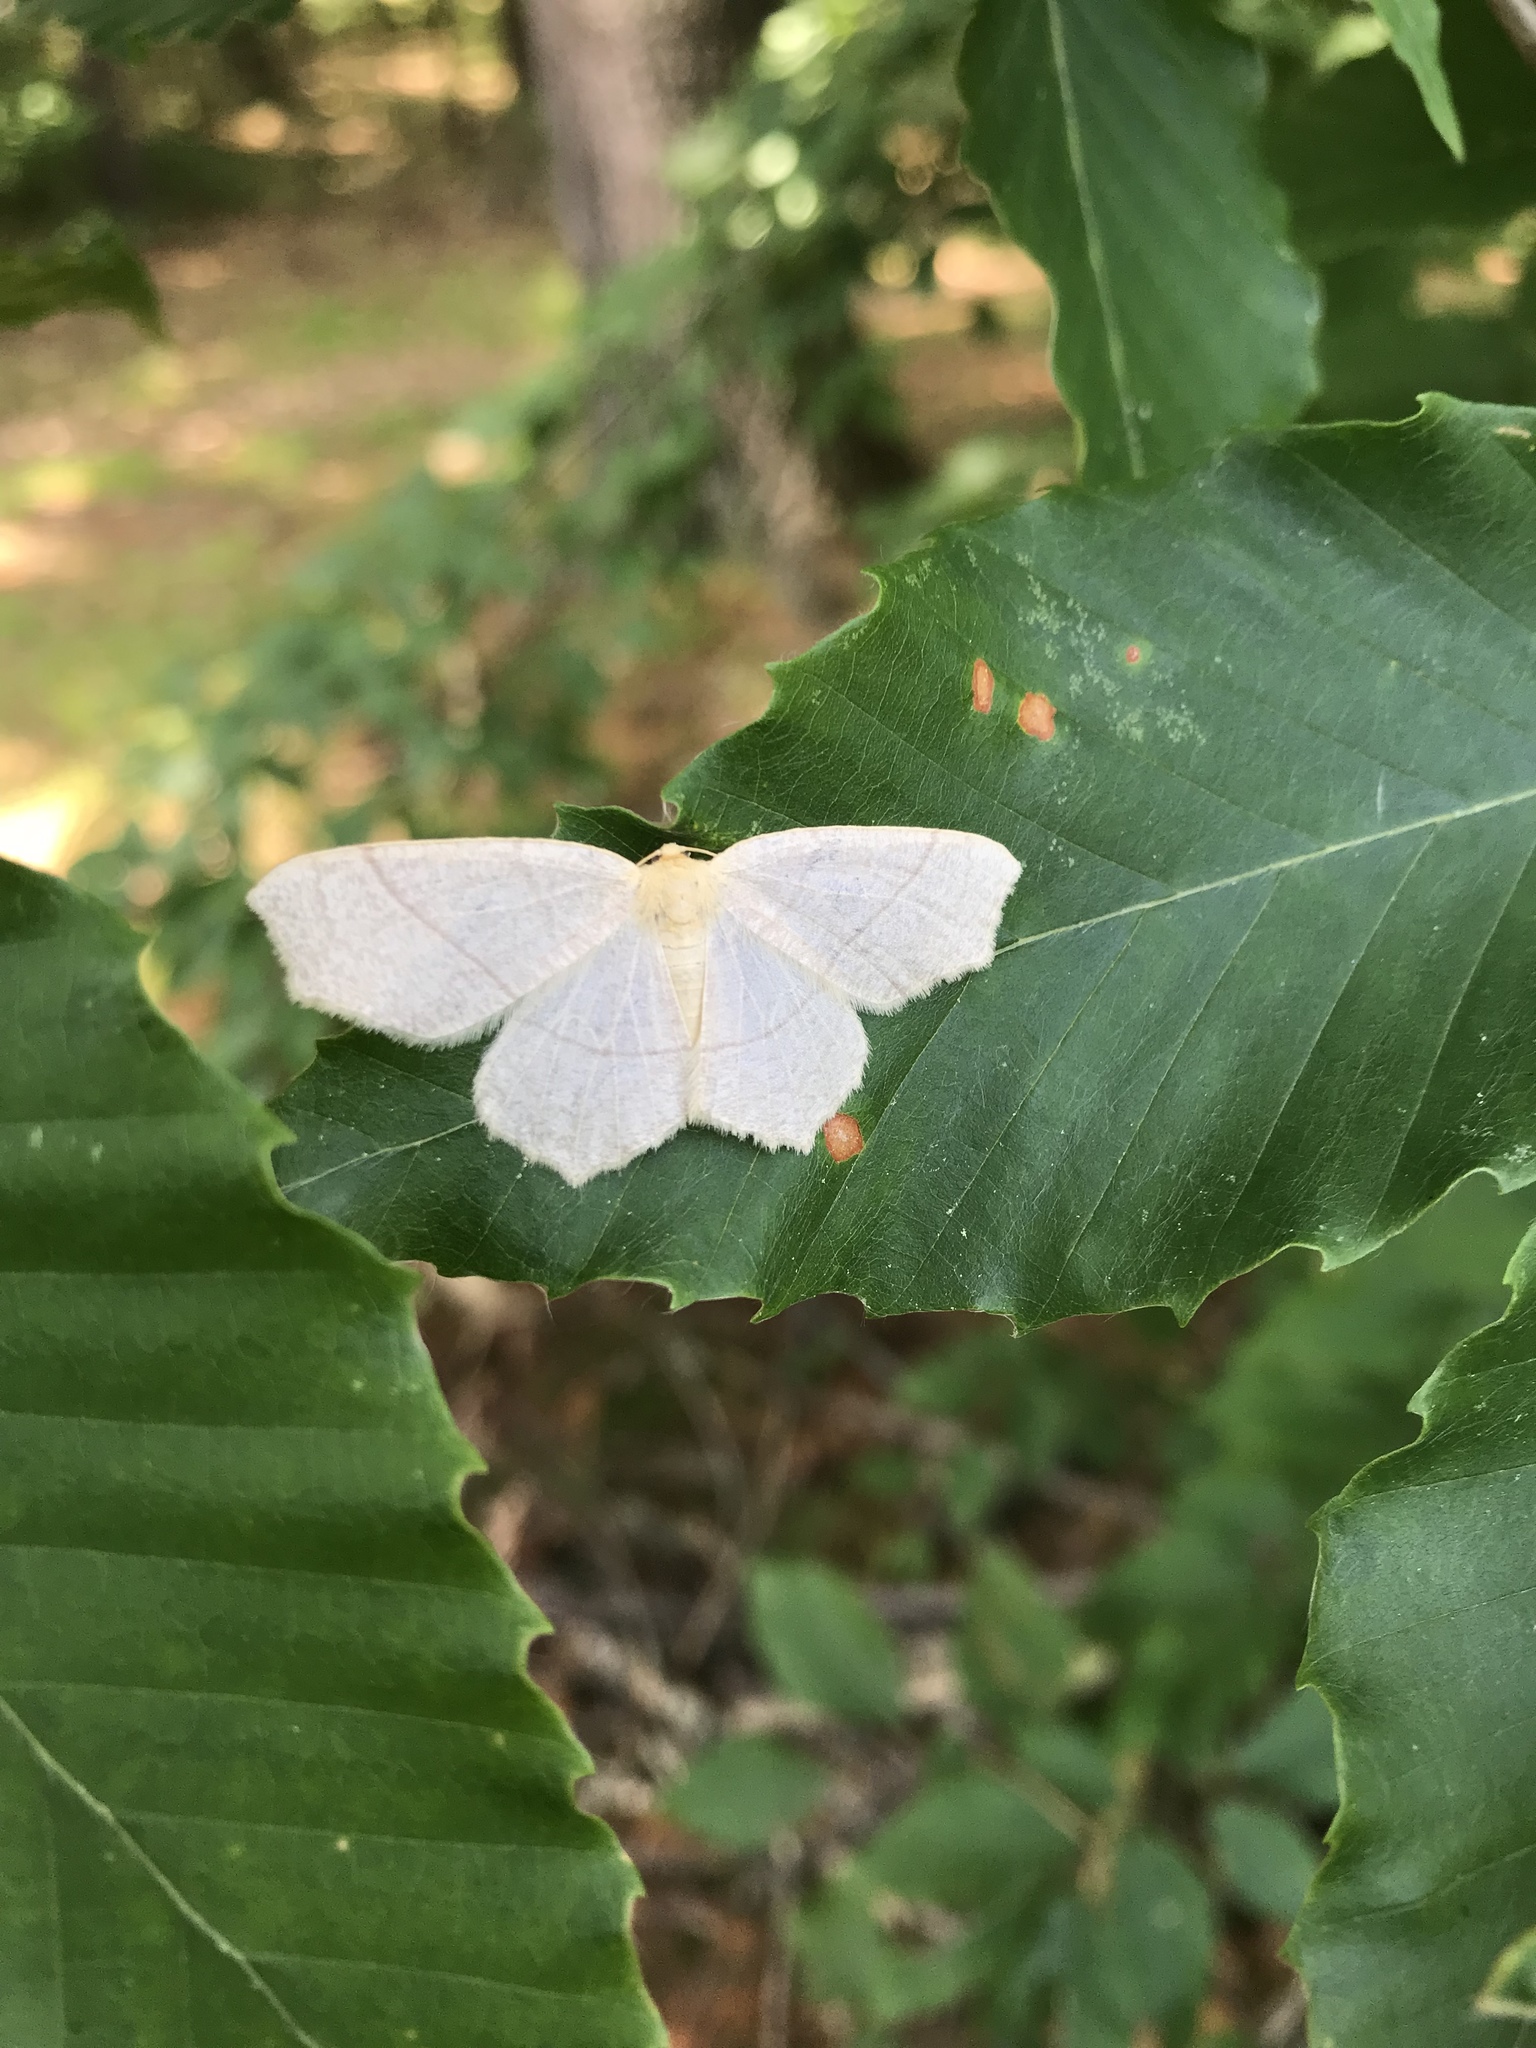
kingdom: Animalia
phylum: Arthropoda
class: Insecta
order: Lepidoptera
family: Geometridae
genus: Besma
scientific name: Besma endropiaria
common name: Straw besma
